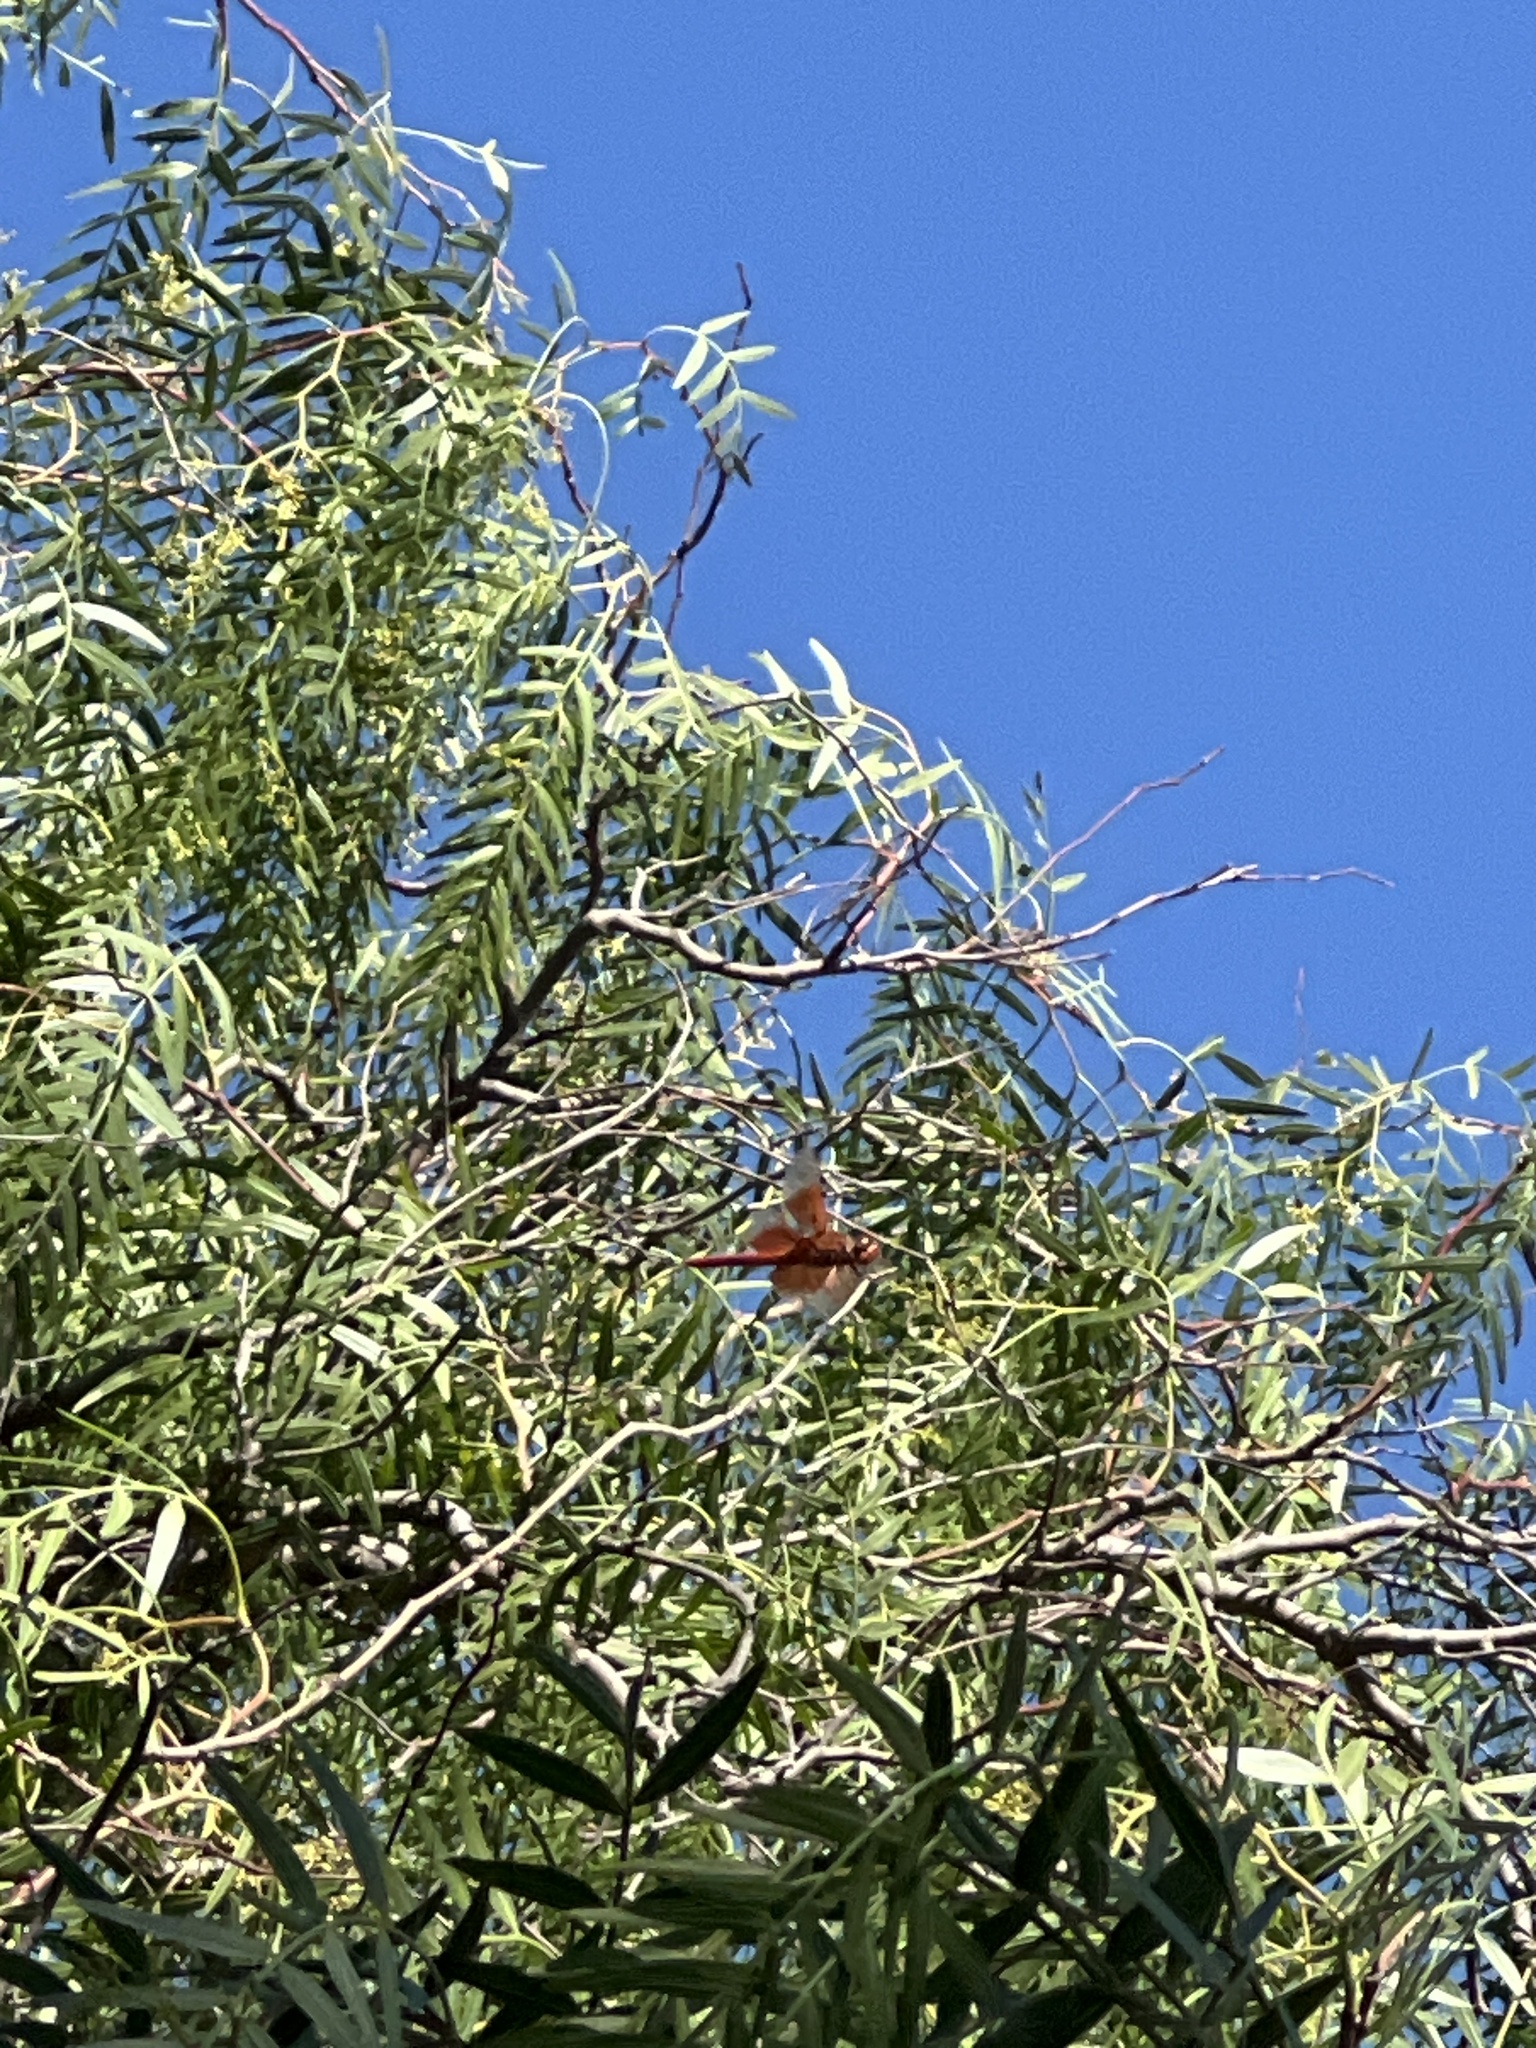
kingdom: Animalia
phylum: Arthropoda
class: Insecta
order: Odonata
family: Libellulidae
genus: Libellula
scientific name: Libellula saturata
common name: Flame skimmer
